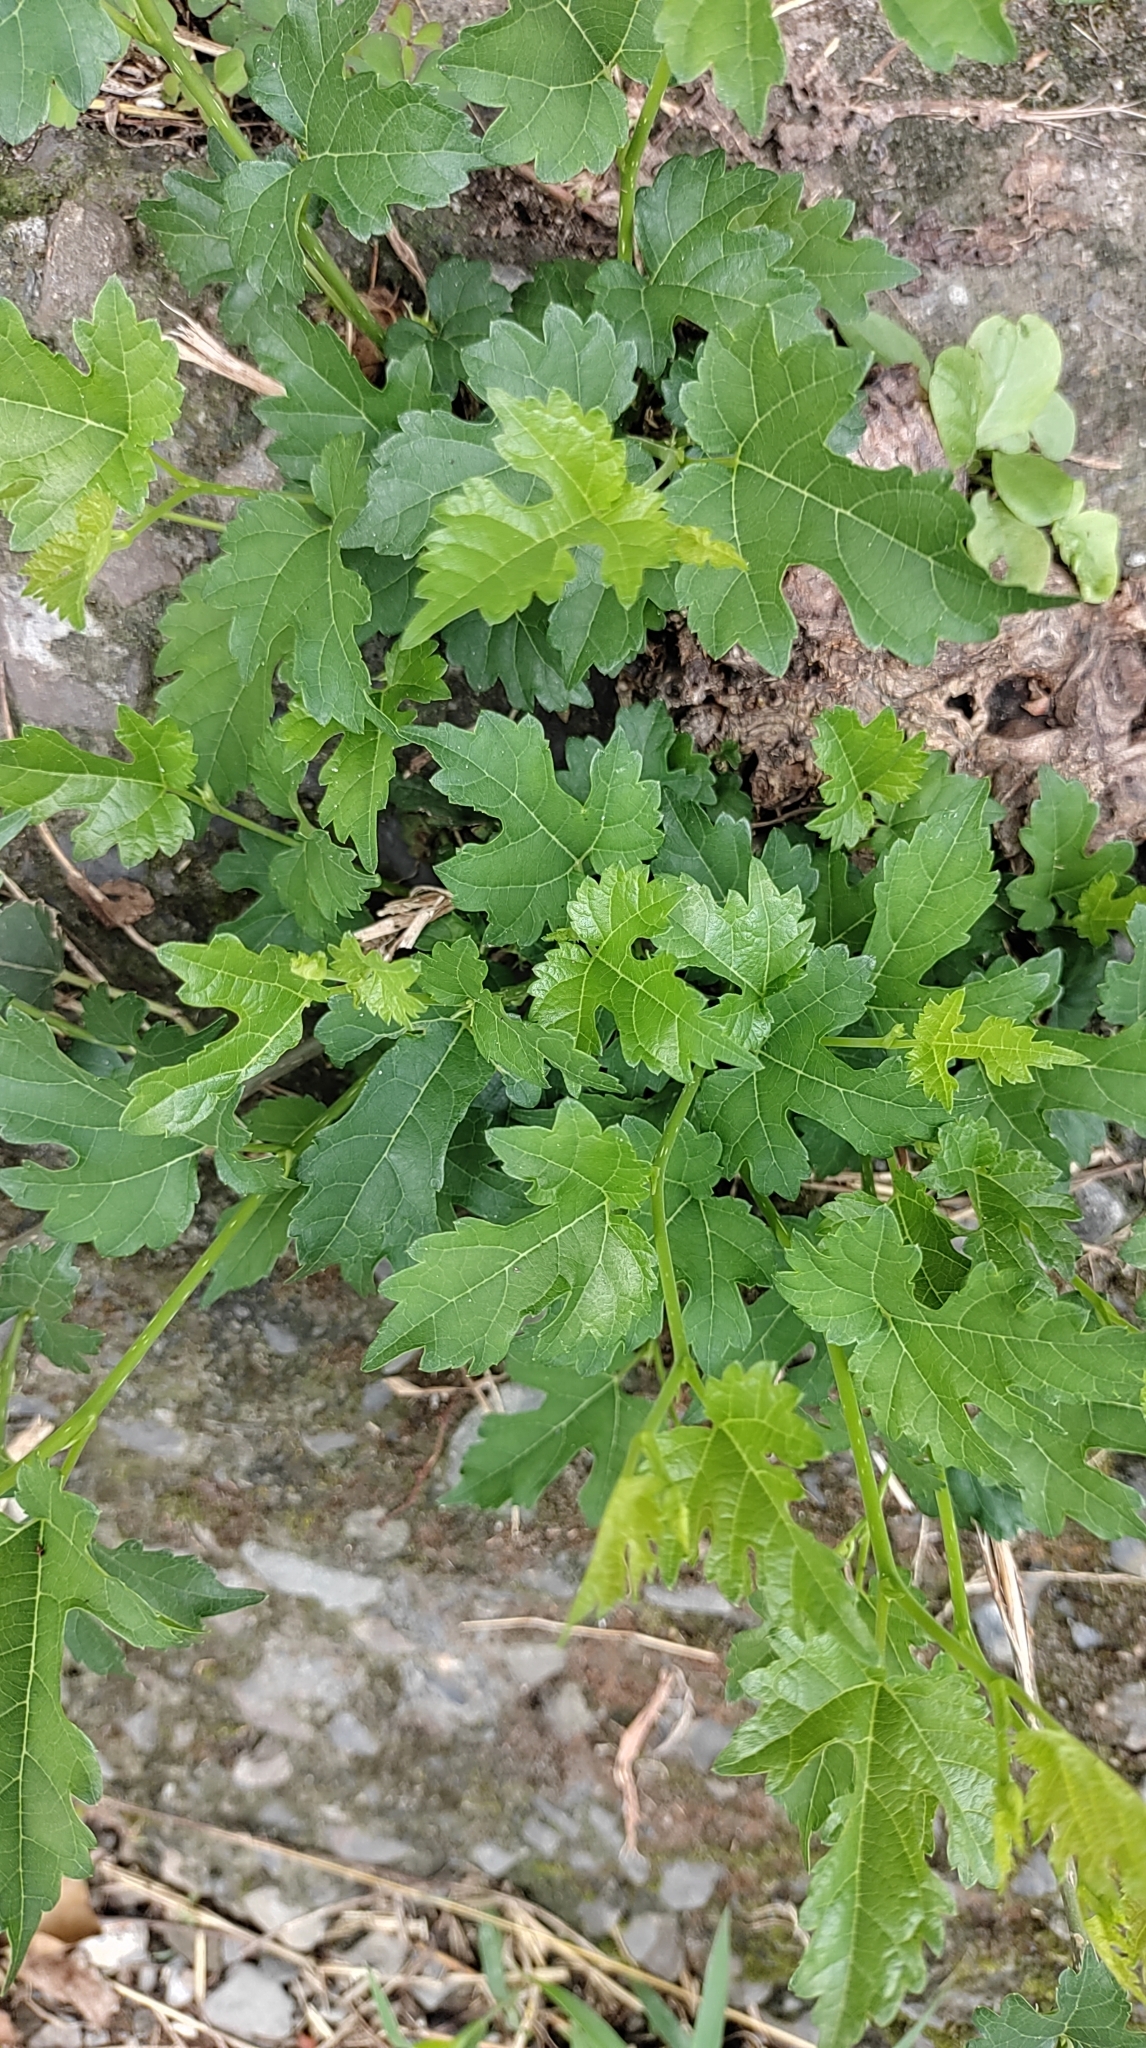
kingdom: Plantae
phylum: Tracheophyta
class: Magnoliopsida
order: Rosales
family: Moraceae
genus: Morus
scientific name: Morus indica
